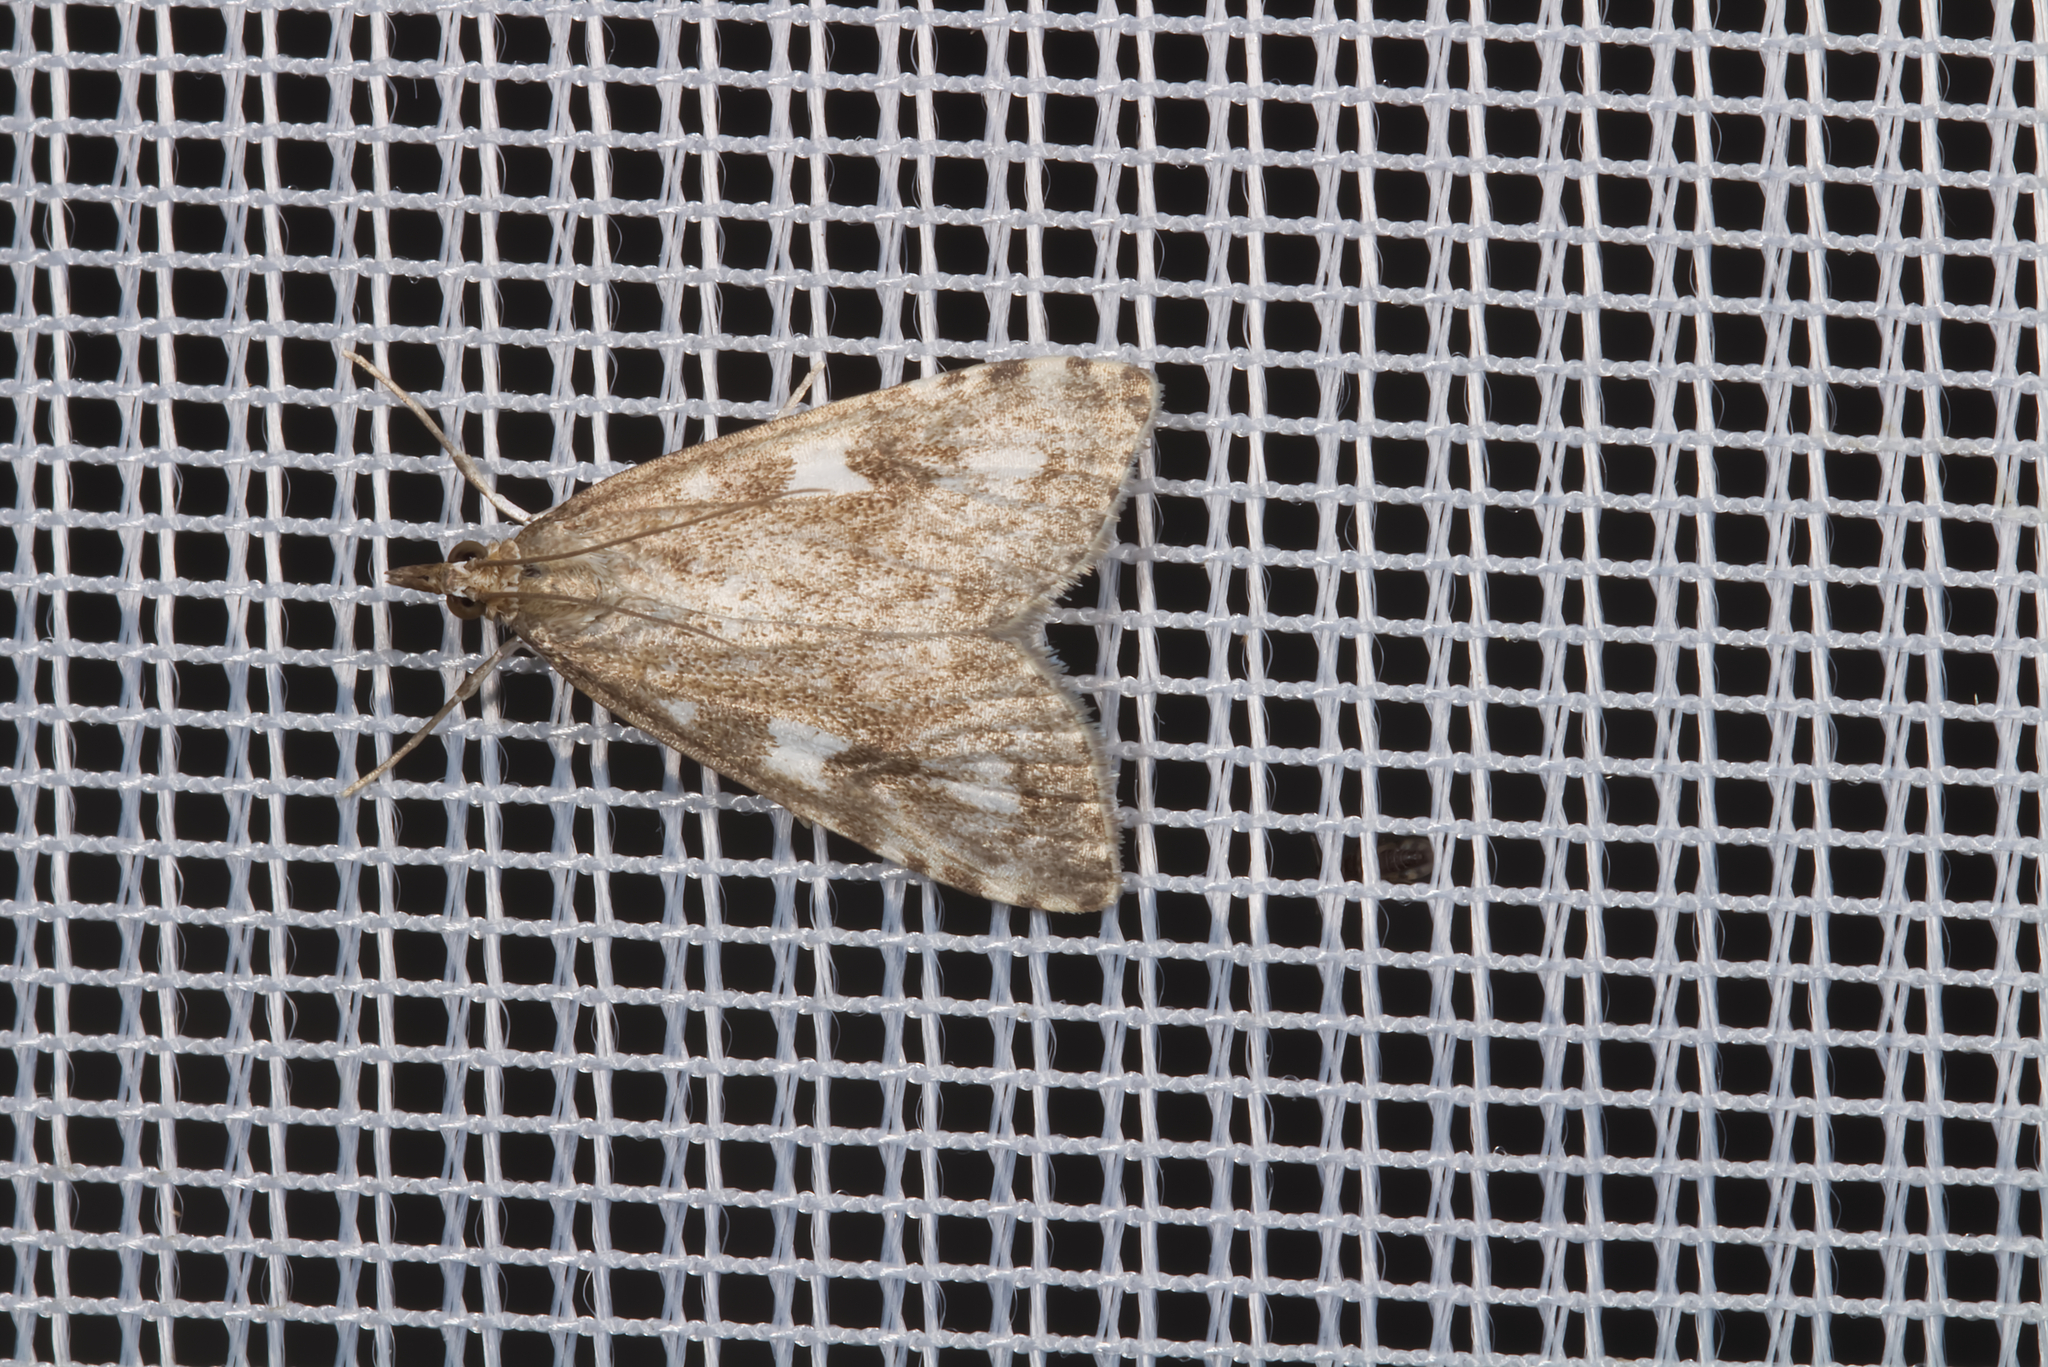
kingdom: Animalia
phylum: Arthropoda
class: Insecta
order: Lepidoptera
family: Crambidae
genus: Udea
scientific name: Udea olivalis
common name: Olive pearl
